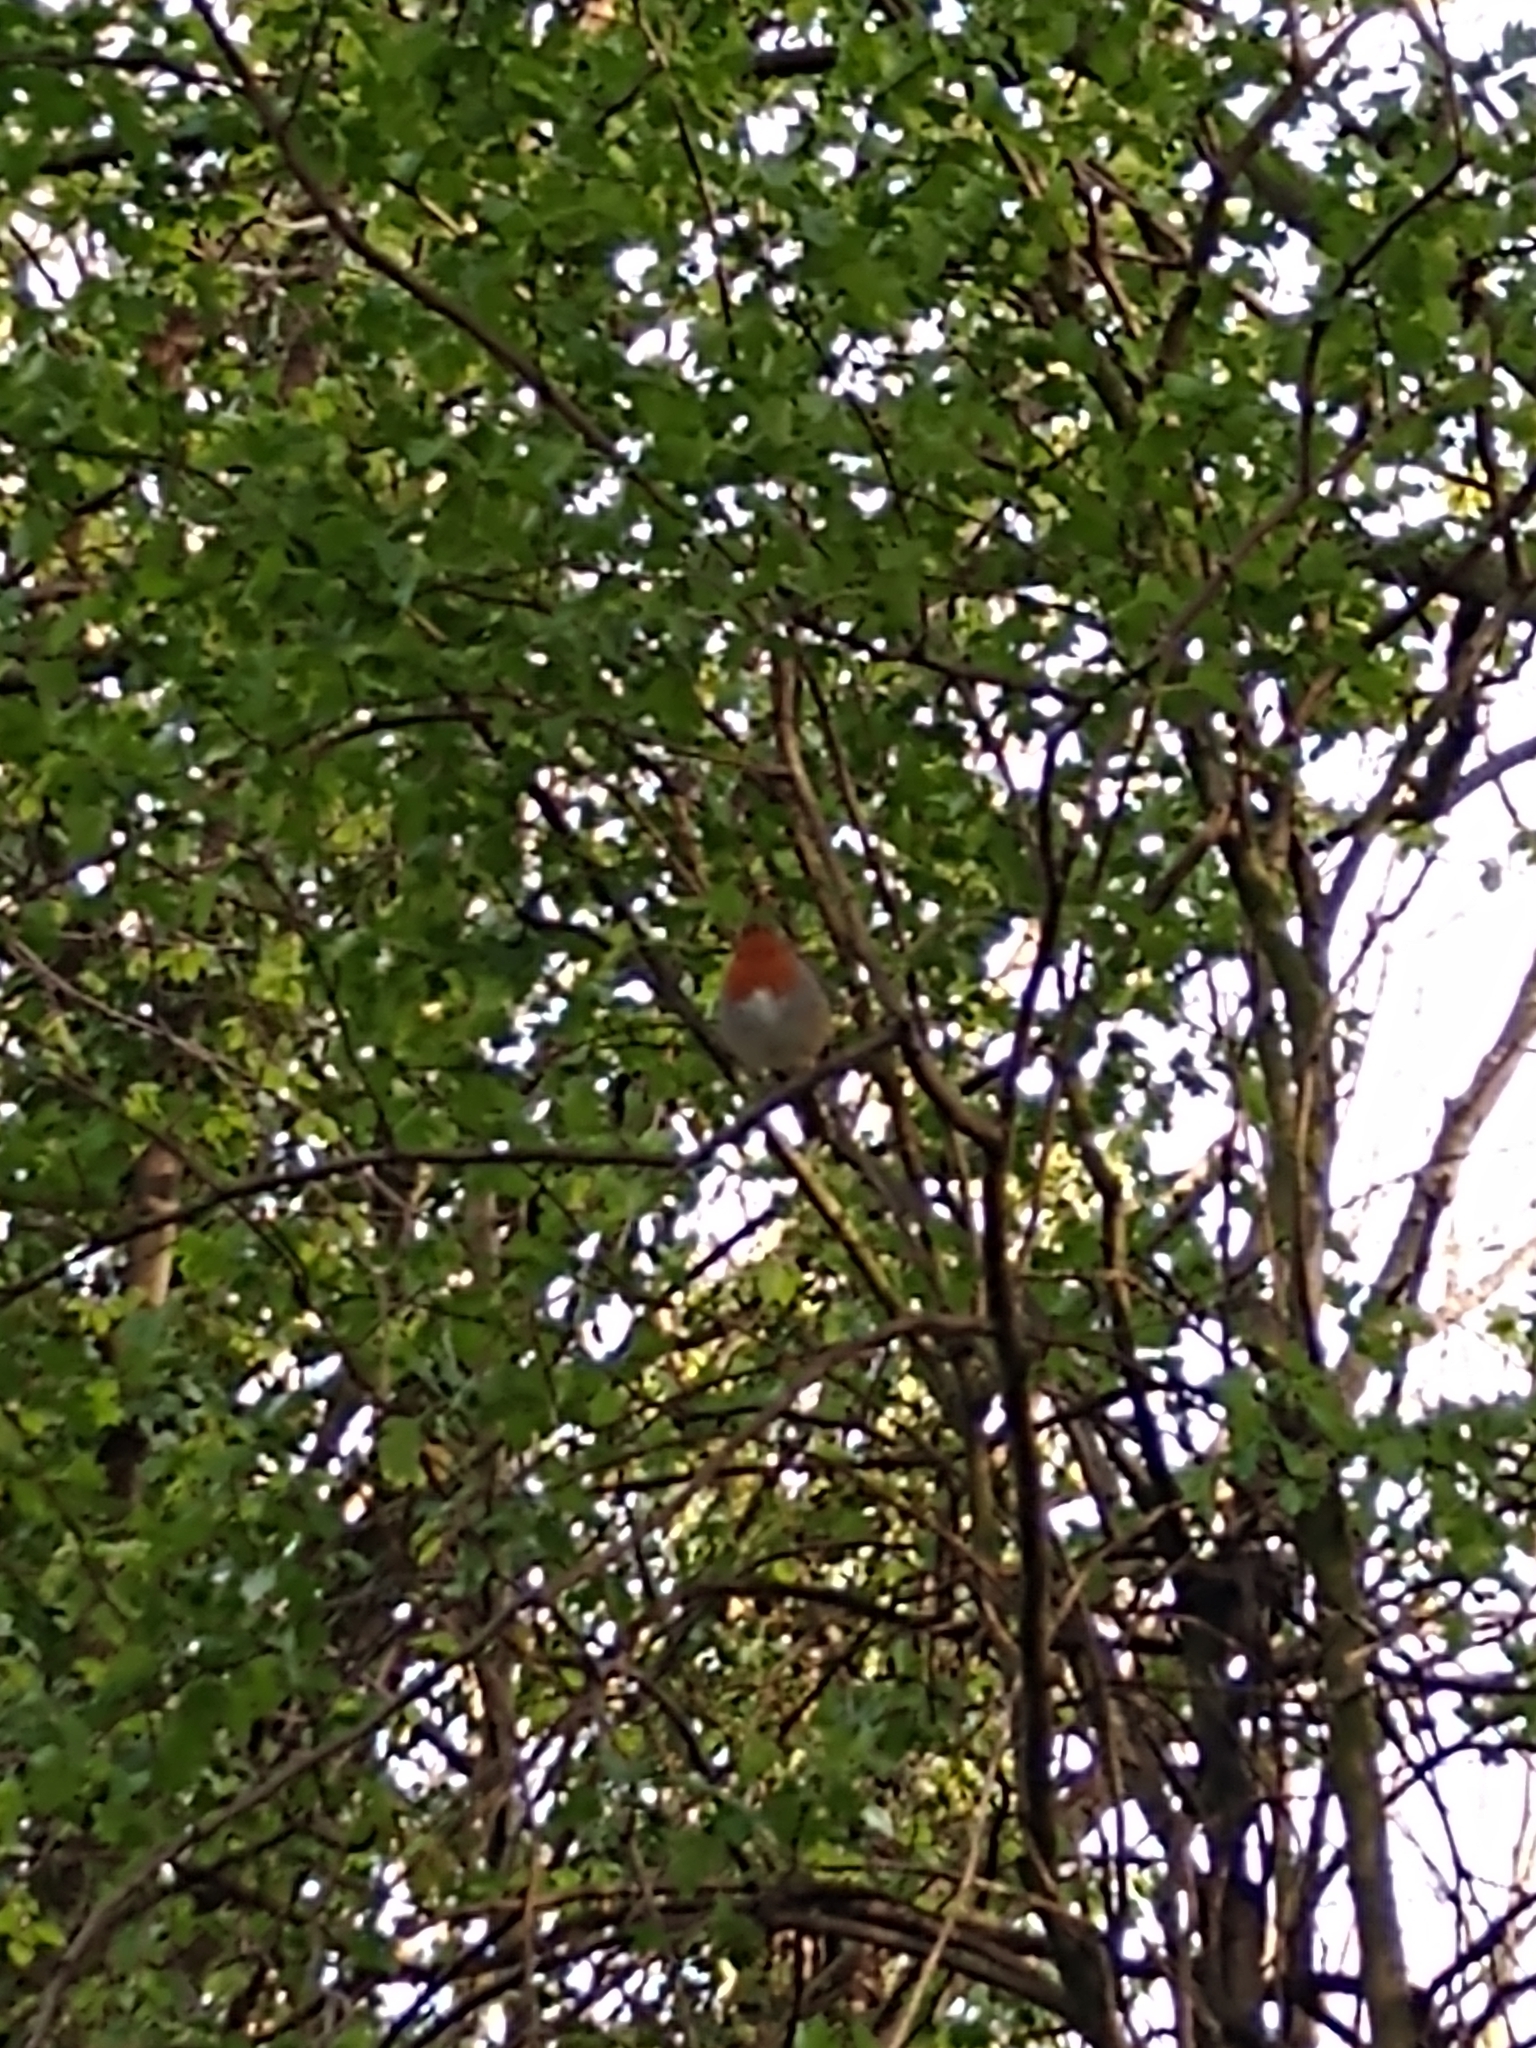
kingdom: Animalia
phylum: Chordata
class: Aves
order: Passeriformes
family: Muscicapidae
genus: Erithacus
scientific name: Erithacus rubecula
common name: European robin
